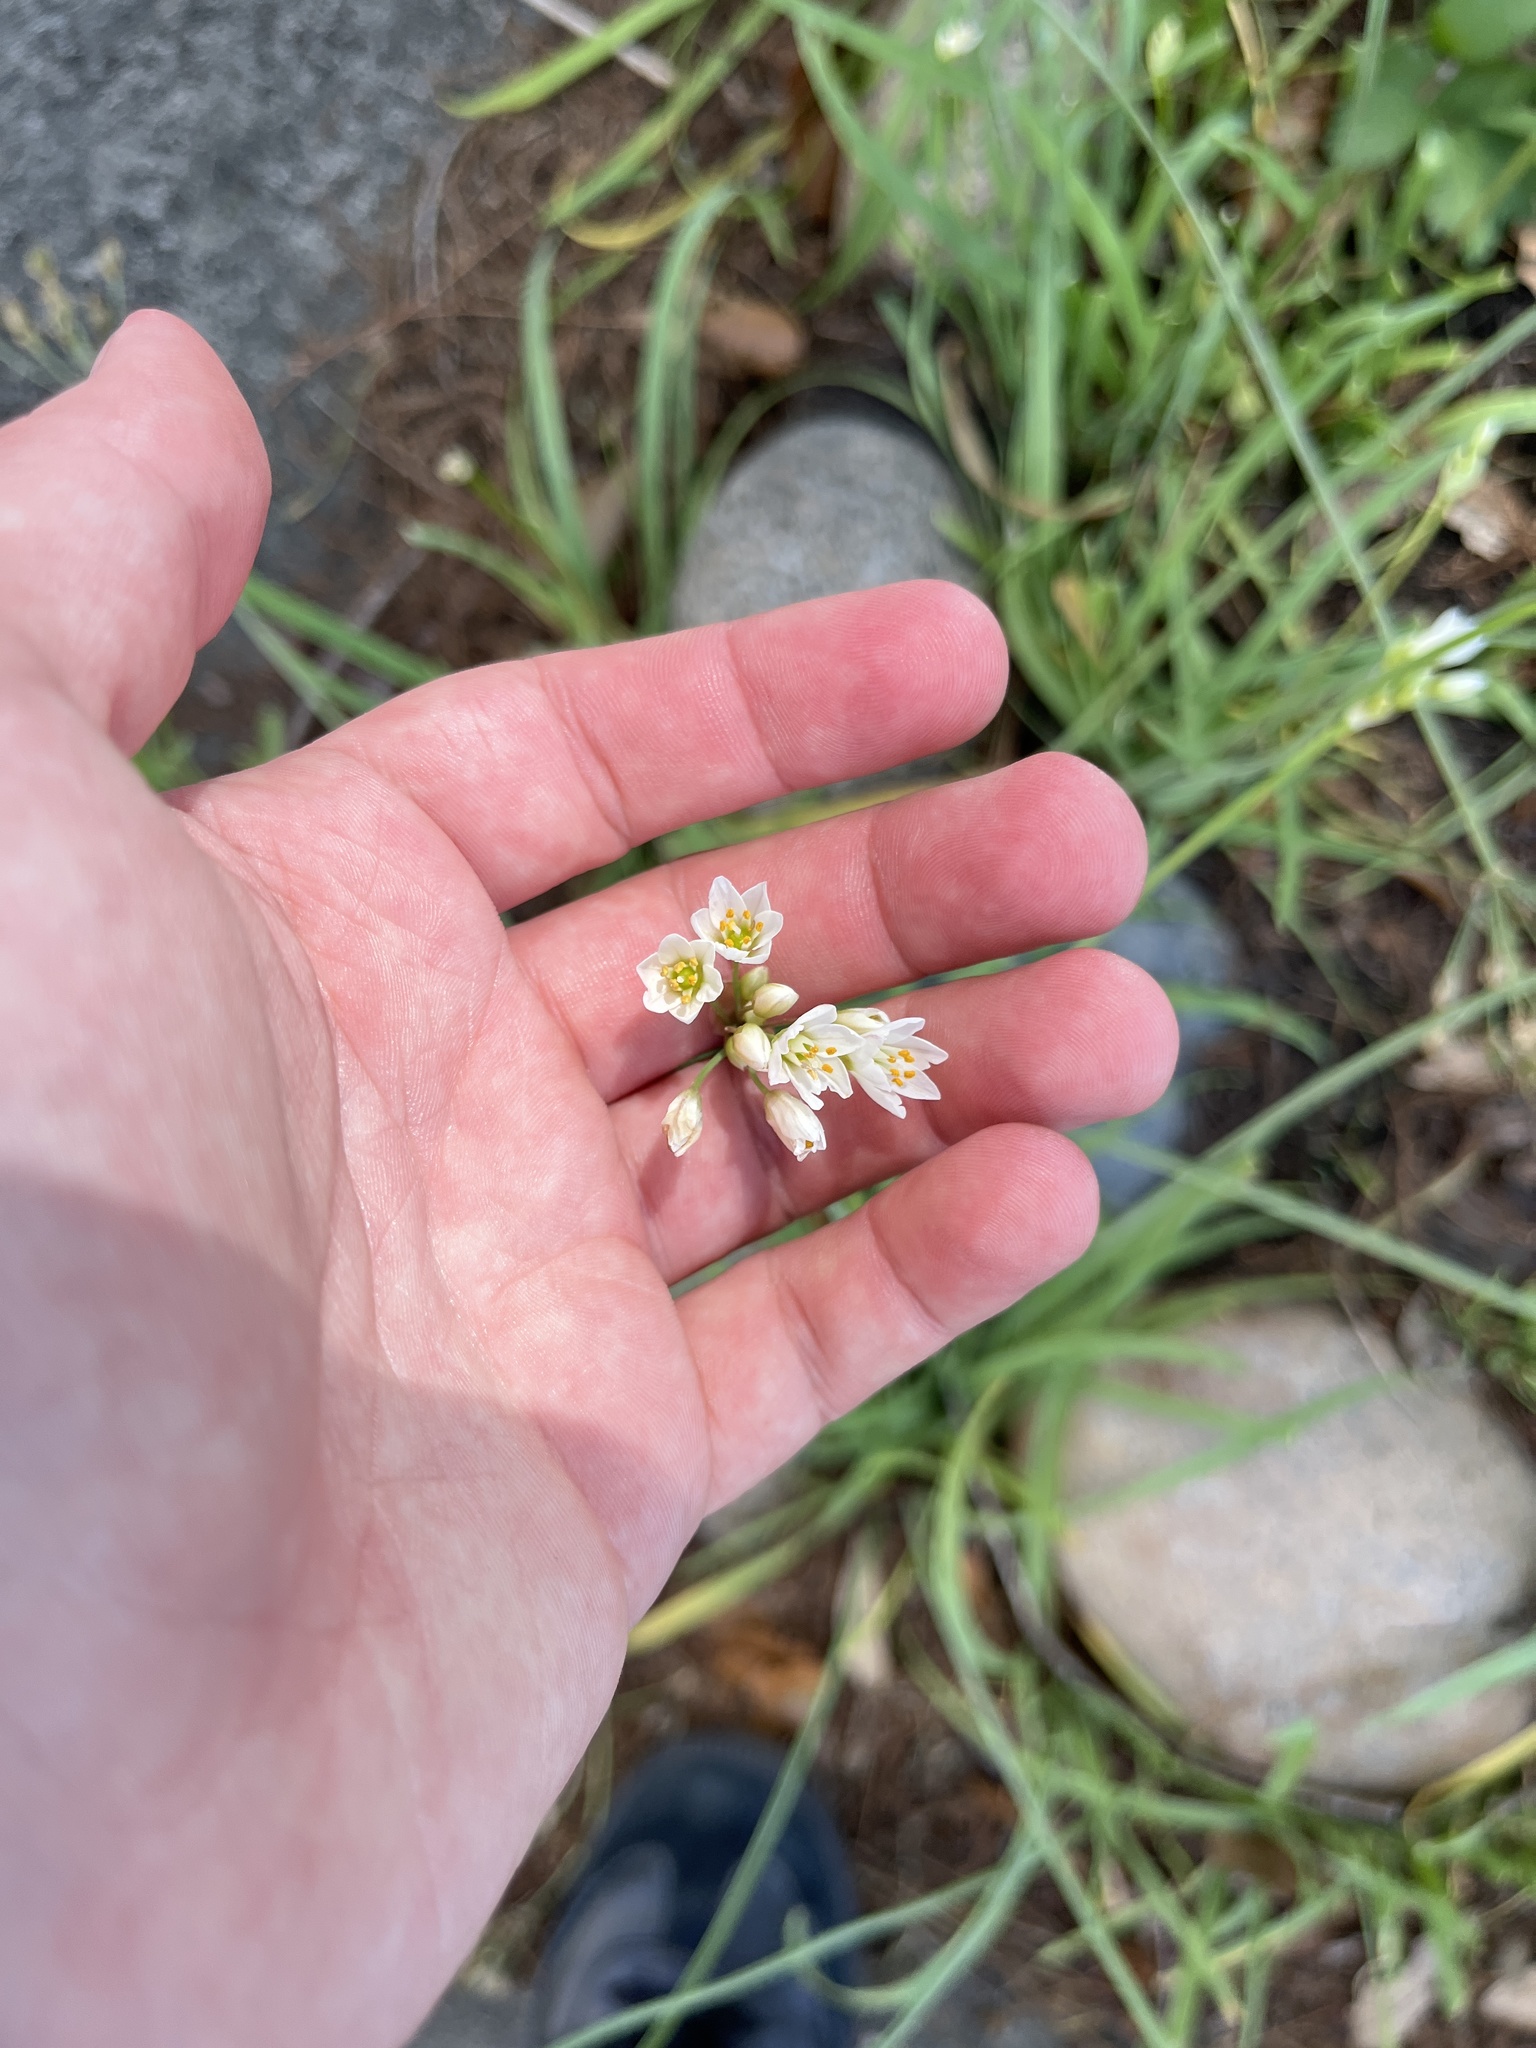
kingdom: Plantae
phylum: Tracheophyta
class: Liliopsida
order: Asparagales
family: Amaryllidaceae
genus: Nothoscordum
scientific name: Nothoscordum gracile
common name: Slender false garlic
